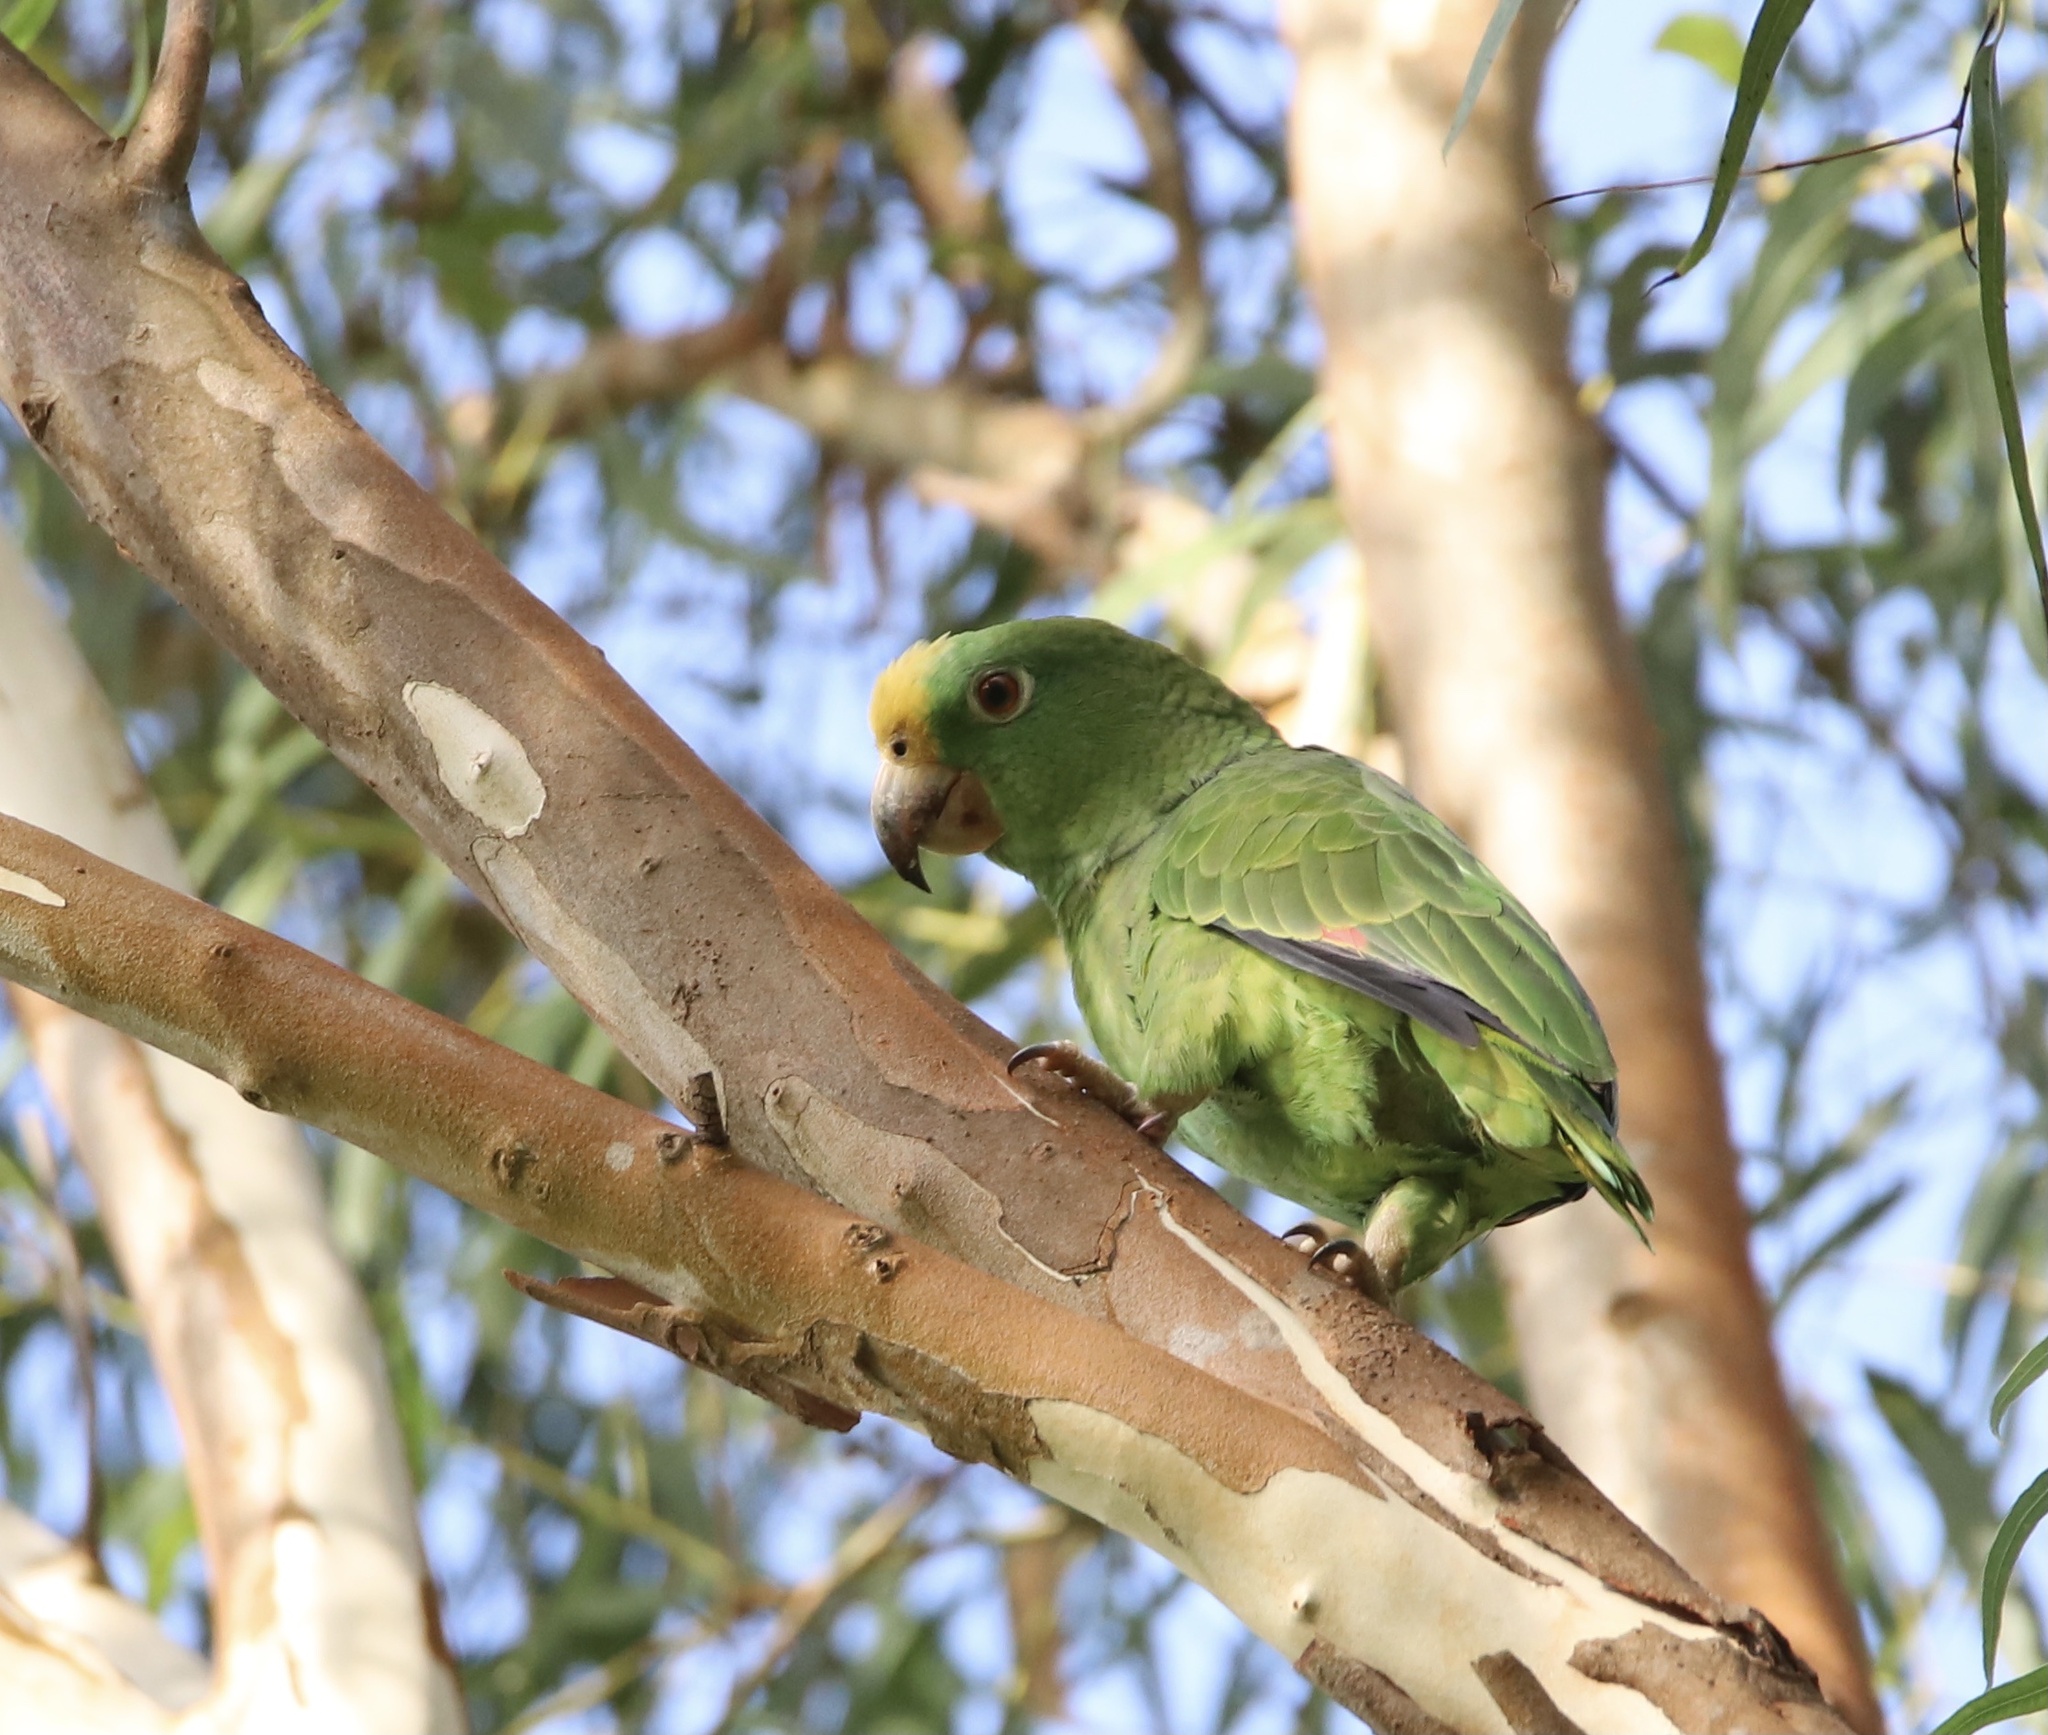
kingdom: Animalia
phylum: Chordata
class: Aves
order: Psittaciformes
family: Psittacidae
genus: Amazona
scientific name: Amazona ochrocephala
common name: Yellow-crowned amazon
